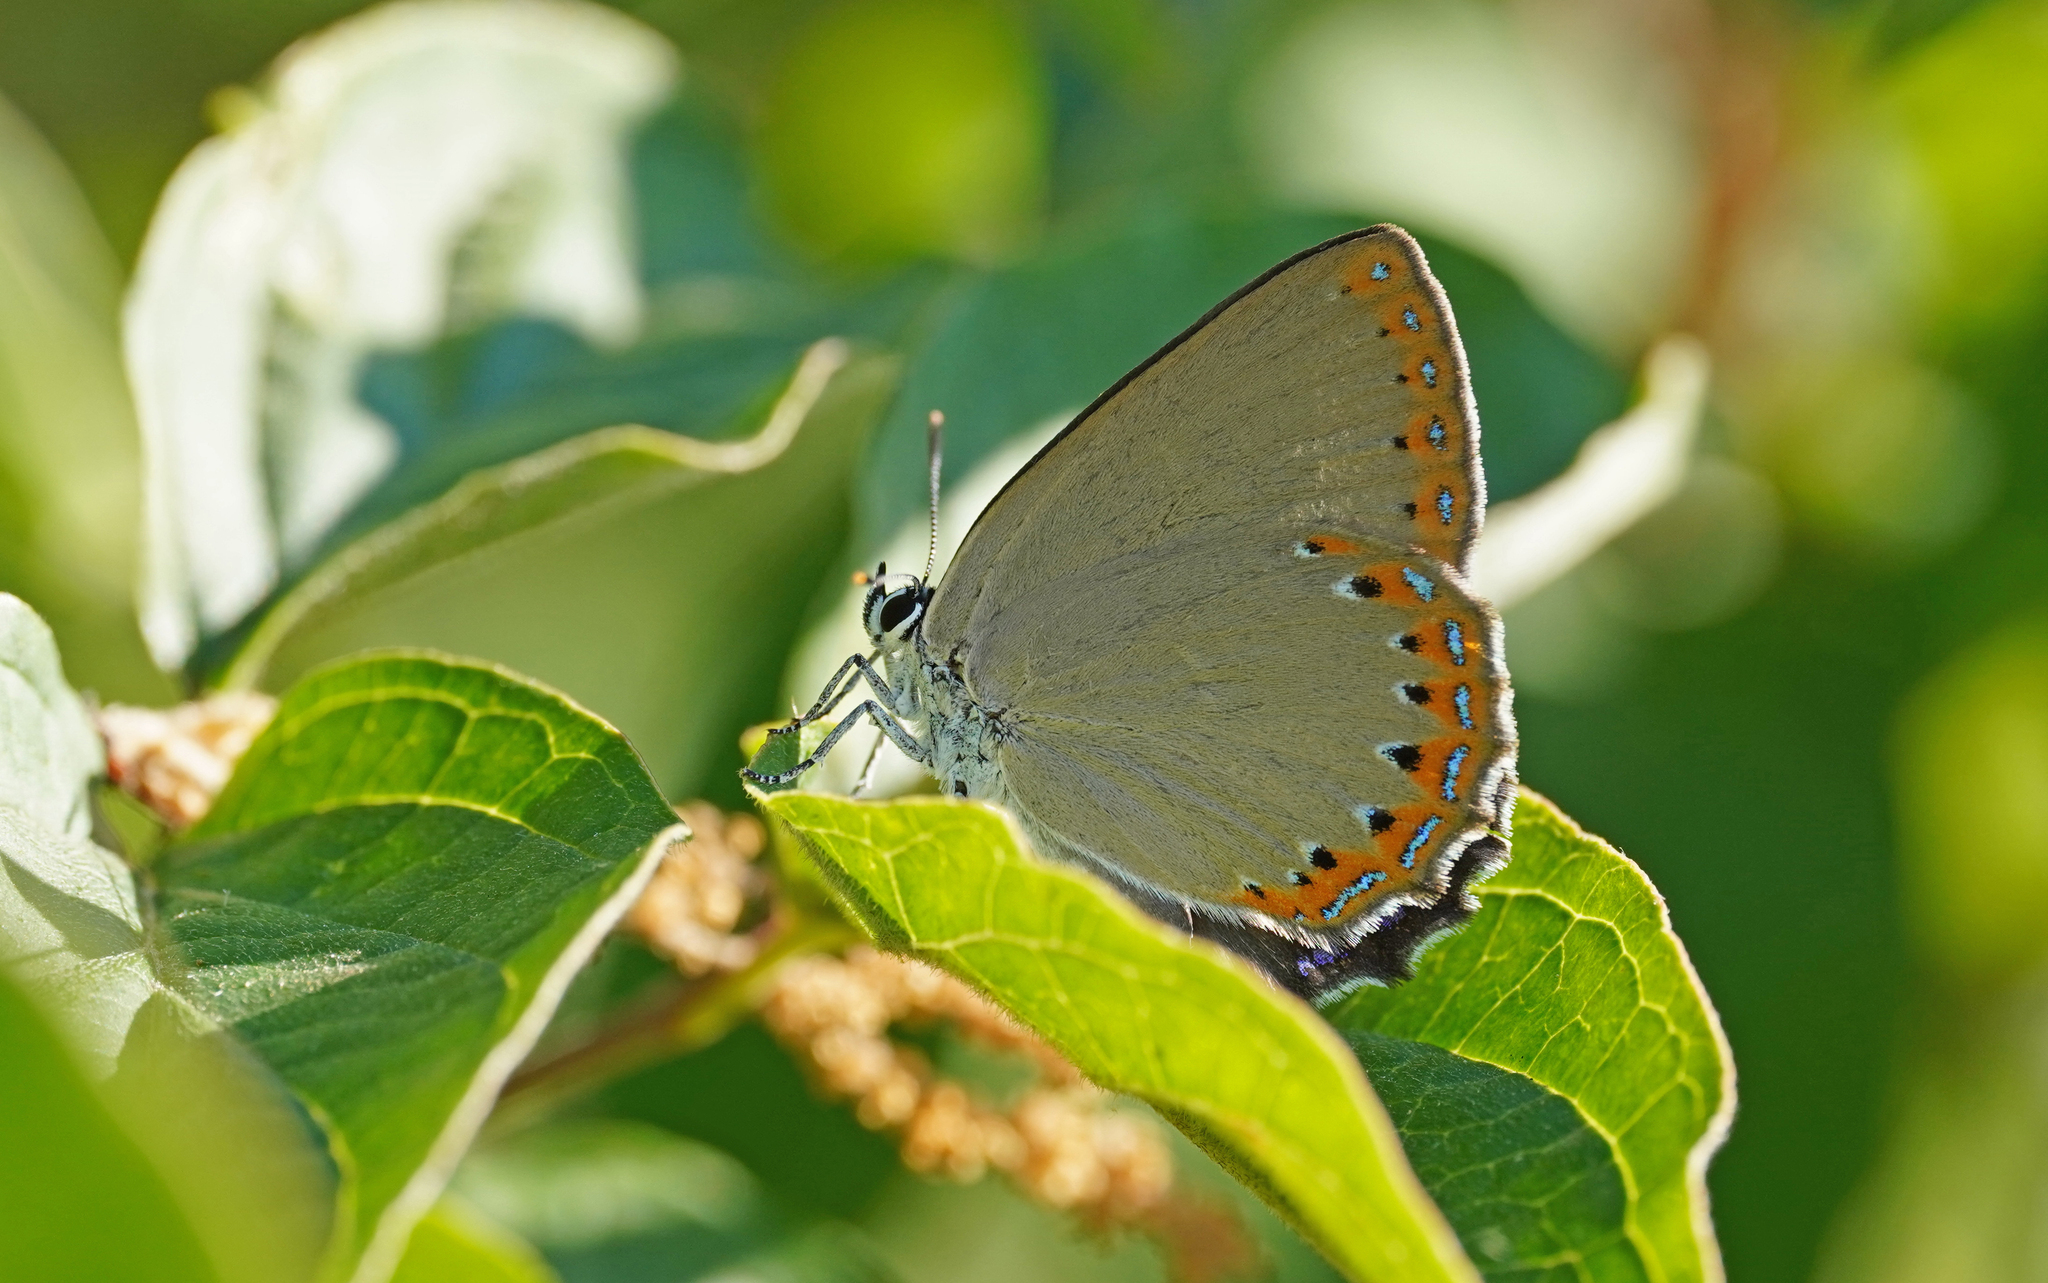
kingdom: Animalia
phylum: Arthropoda
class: Insecta
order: Lepidoptera
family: Lycaenidae
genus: Laeosopis
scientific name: Laeosopis roboris
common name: Spanish purple hairstreak
